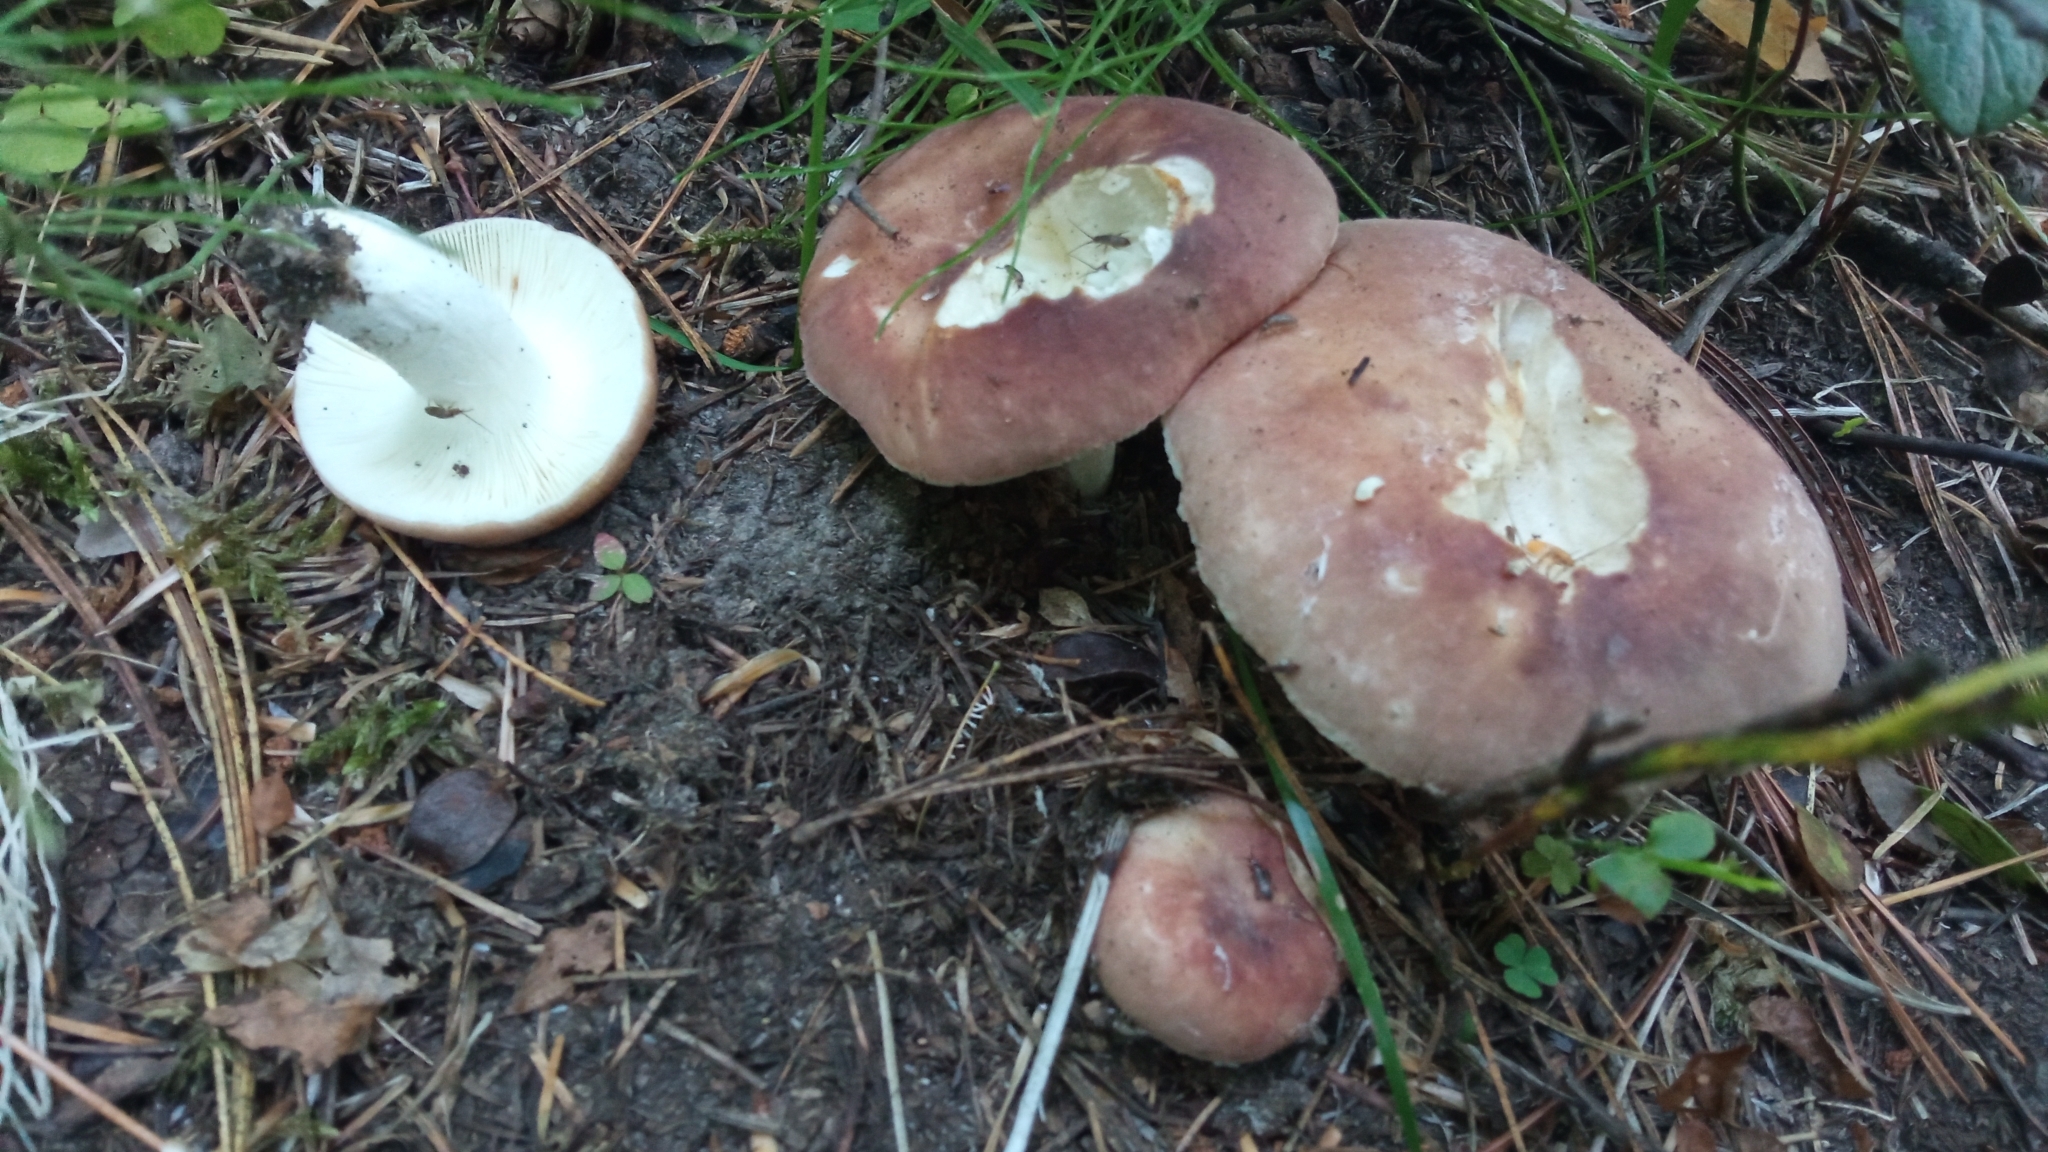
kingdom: Fungi
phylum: Basidiomycota
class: Agaricomycetes
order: Russulales
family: Russulaceae
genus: Russula
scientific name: Russula vesca
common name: Bare-toothed russula
